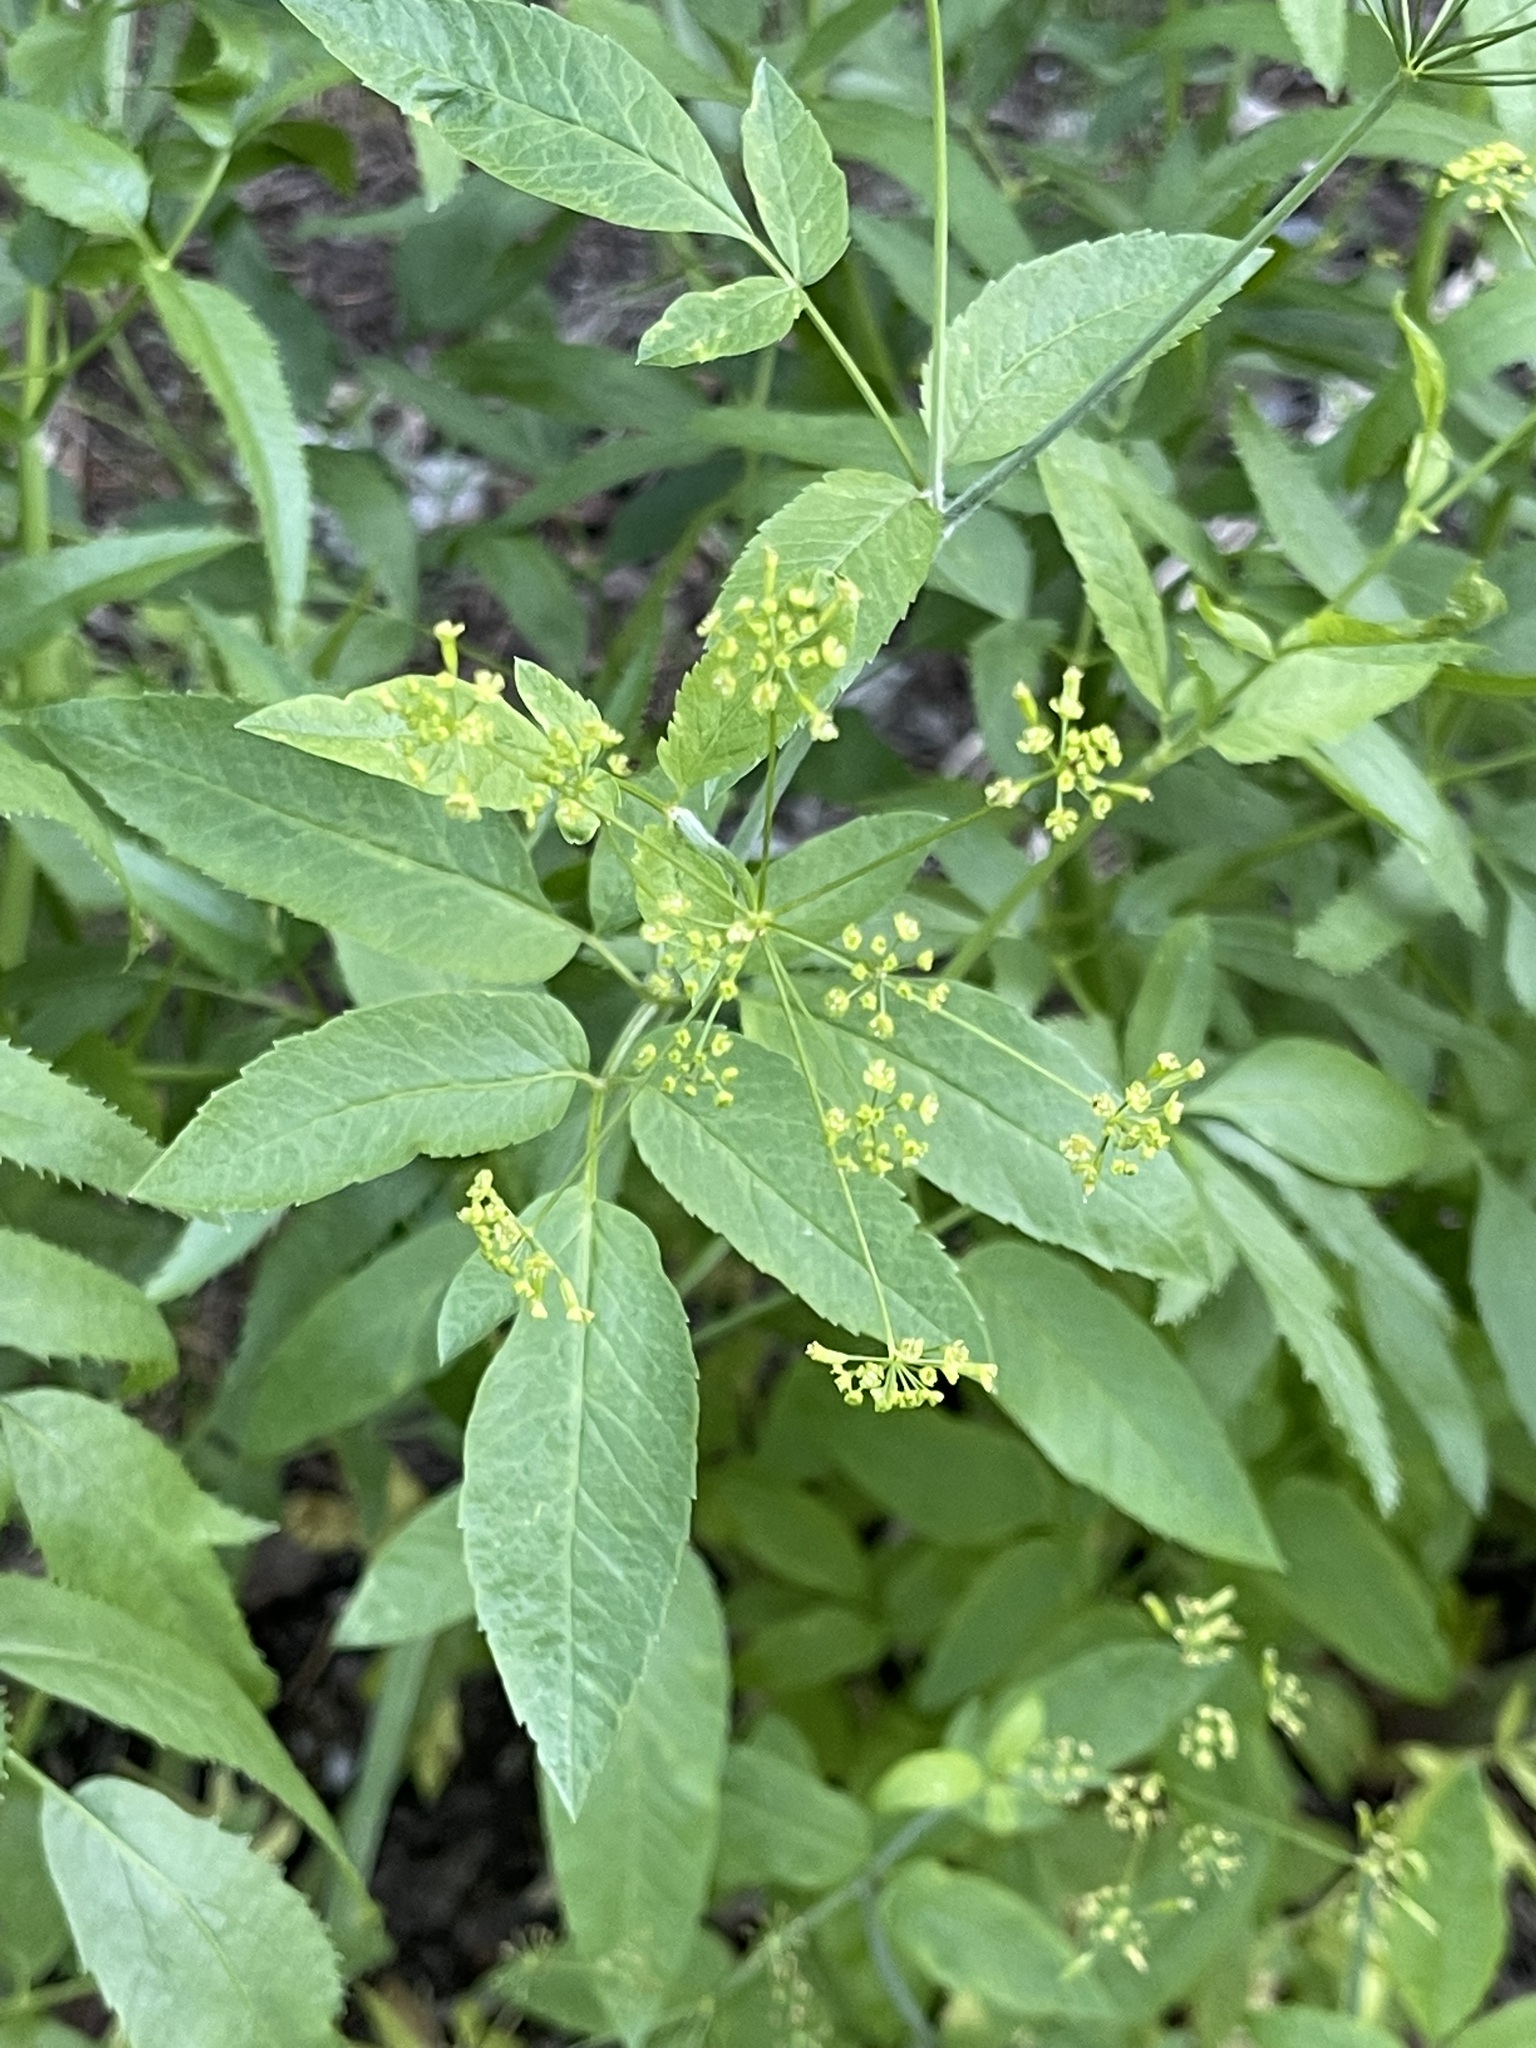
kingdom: Plantae
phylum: Tracheophyta
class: Magnoliopsida
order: Apiales
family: Apiaceae
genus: Osmorhiza
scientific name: Osmorhiza occidentalis
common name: Western sweet cicely
